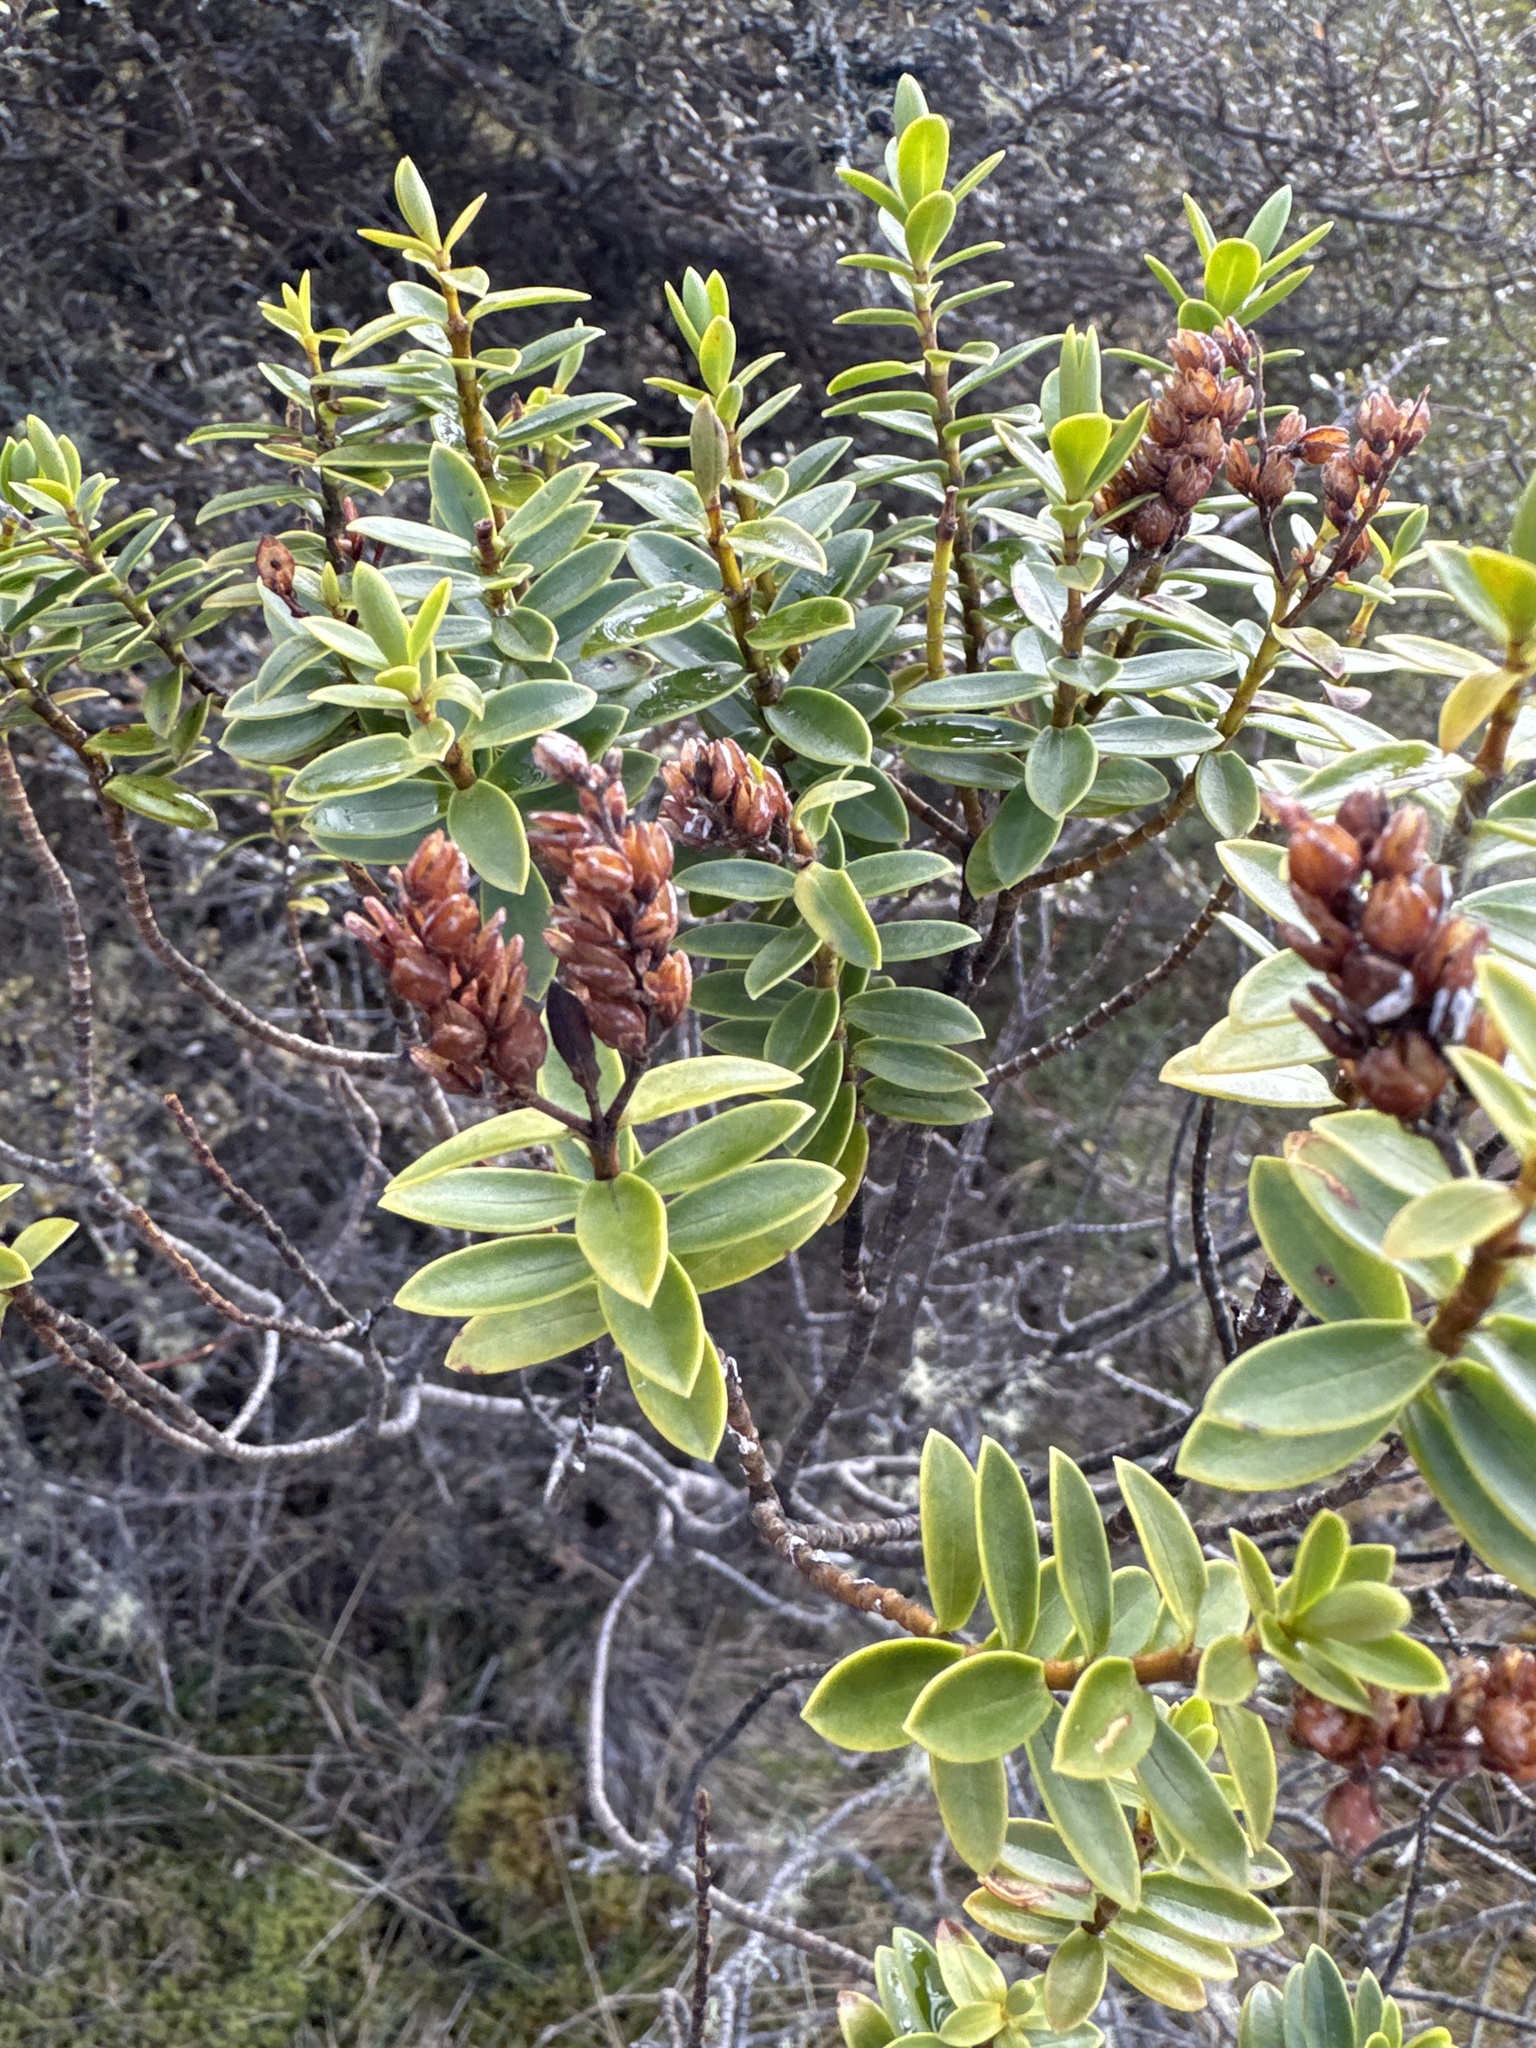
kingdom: Plantae
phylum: Tracheophyta
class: Magnoliopsida
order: Lamiales
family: Plantaginaceae
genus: Veronica
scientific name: Veronica brachysiphon
